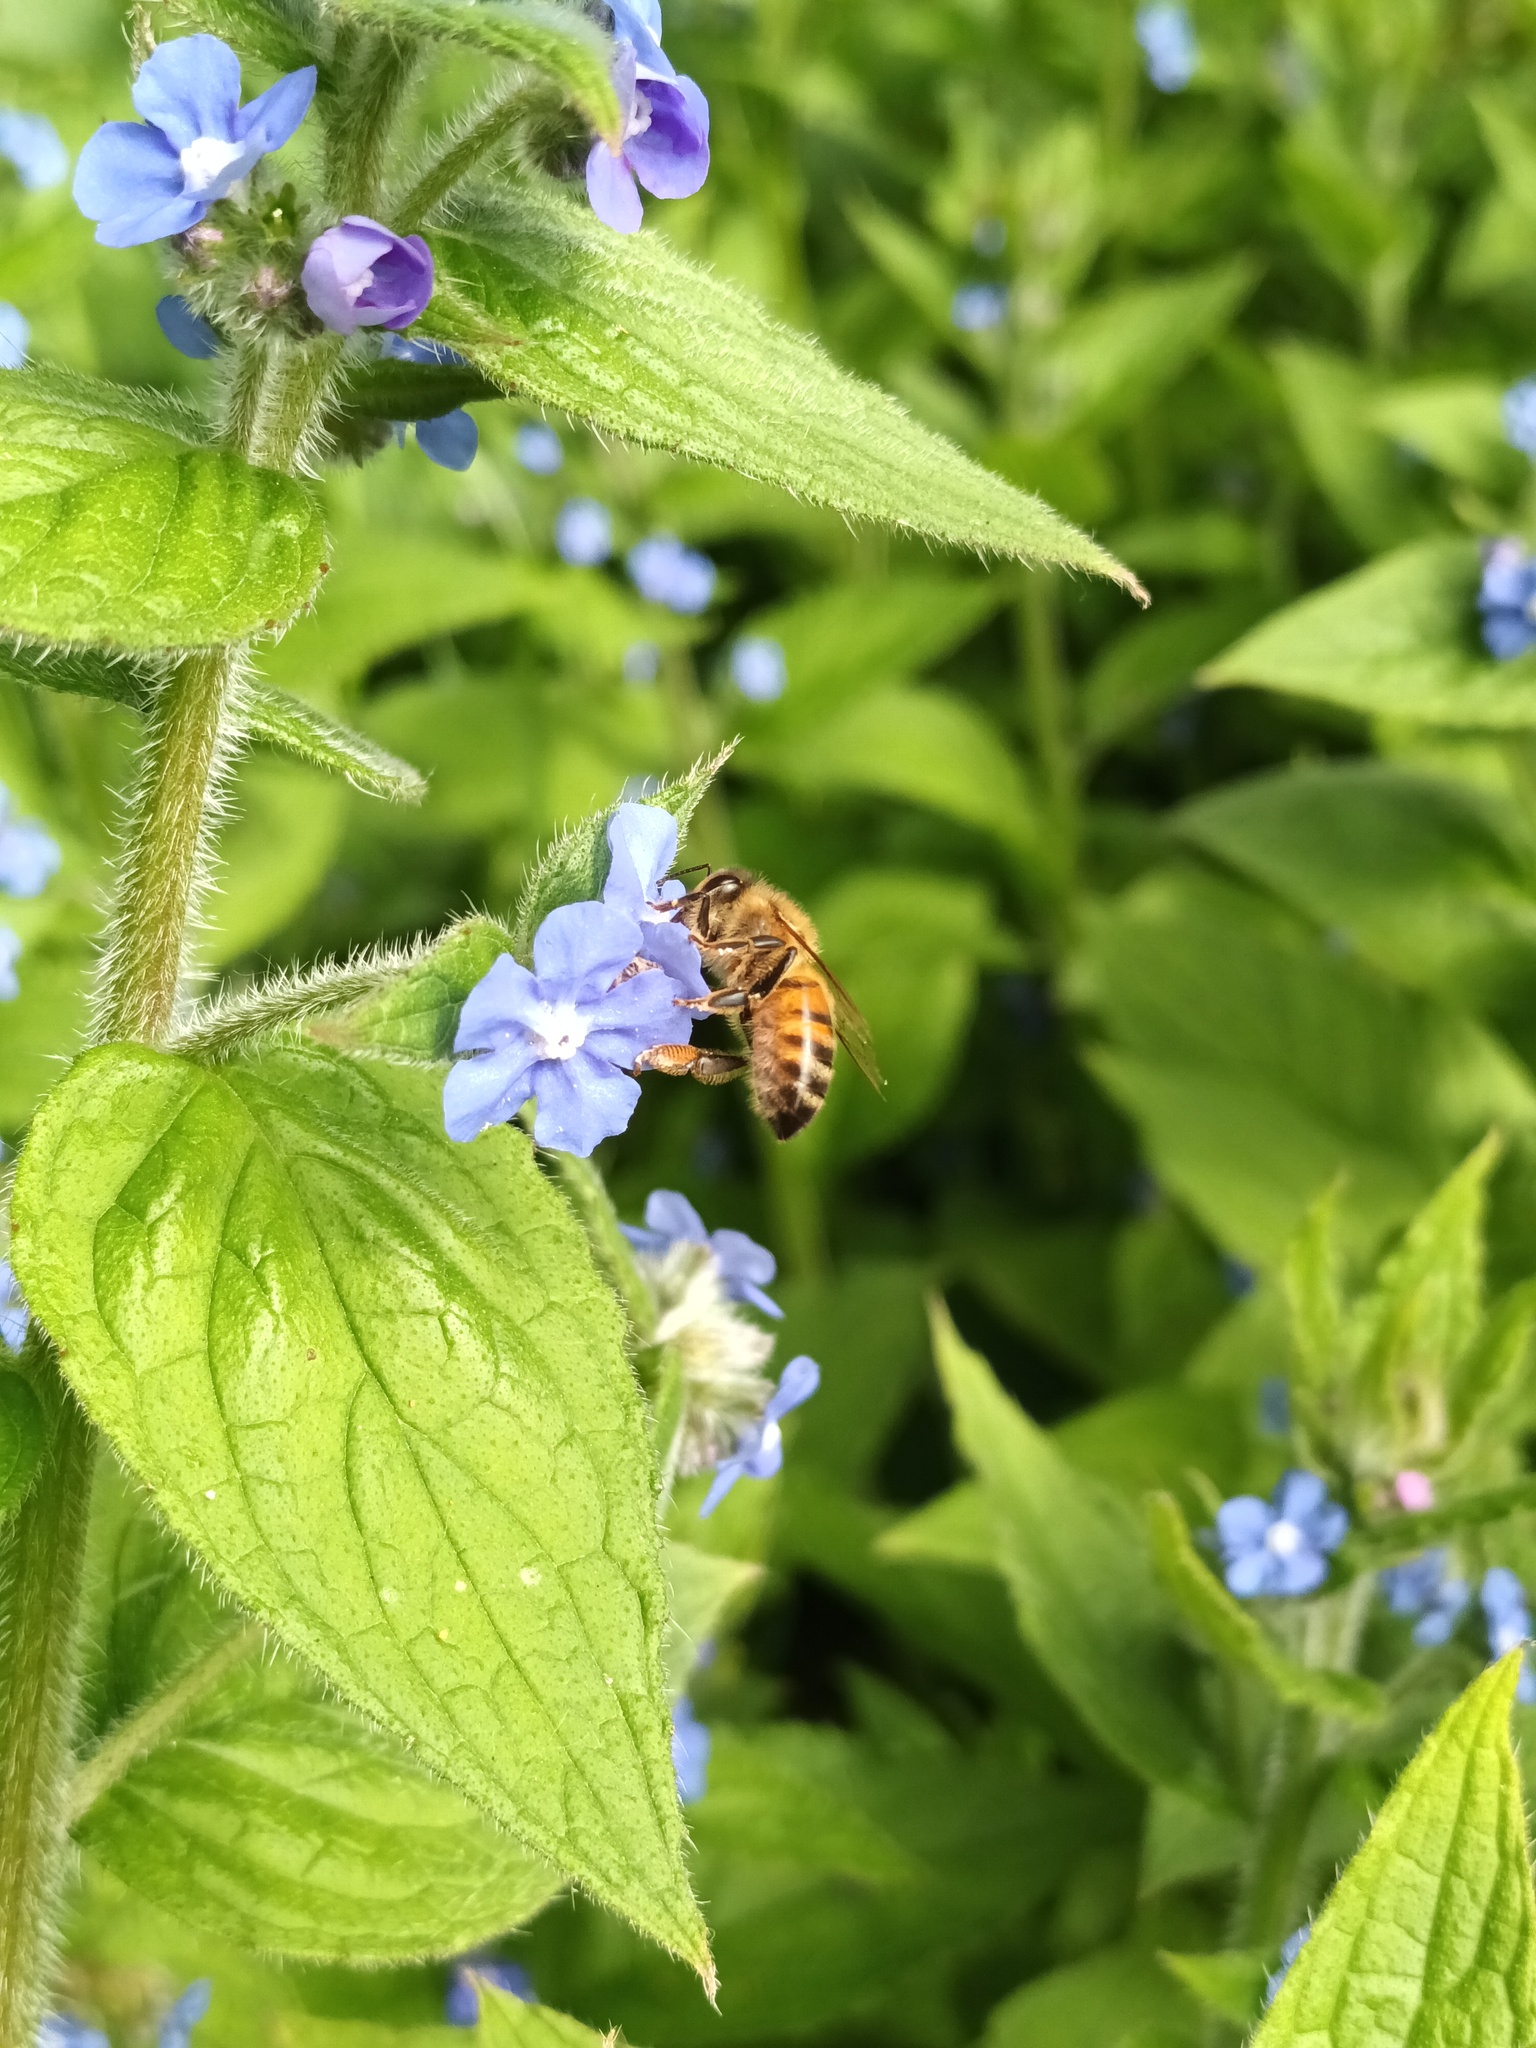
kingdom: Animalia
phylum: Arthropoda
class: Insecta
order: Hymenoptera
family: Apidae
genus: Apis
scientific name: Apis mellifera
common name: Honey bee
